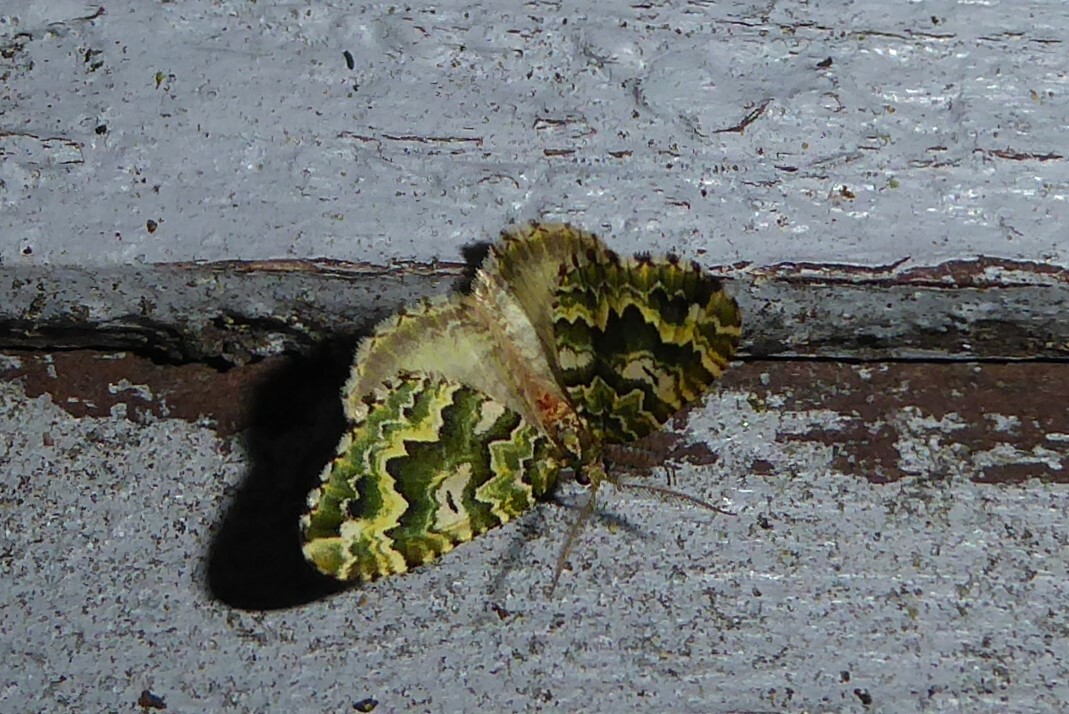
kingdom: Animalia
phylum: Arthropoda
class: Insecta
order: Lepidoptera
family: Geometridae
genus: Asaphodes
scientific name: Asaphodes beata
